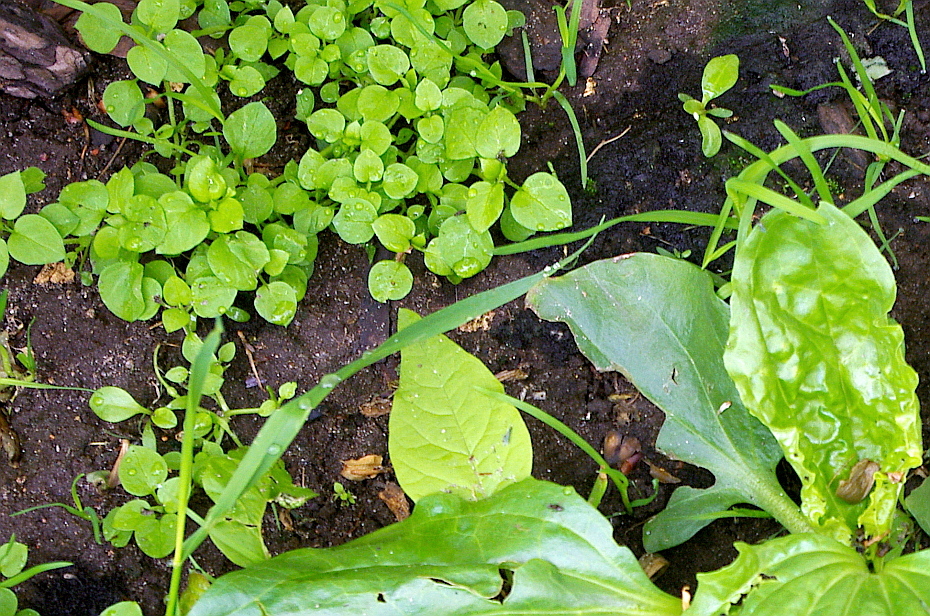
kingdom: Plantae
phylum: Tracheophyta
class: Magnoliopsida
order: Caryophyllales
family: Caryophyllaceae
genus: Stellaria
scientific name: Stellaria media
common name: Common chickweed
